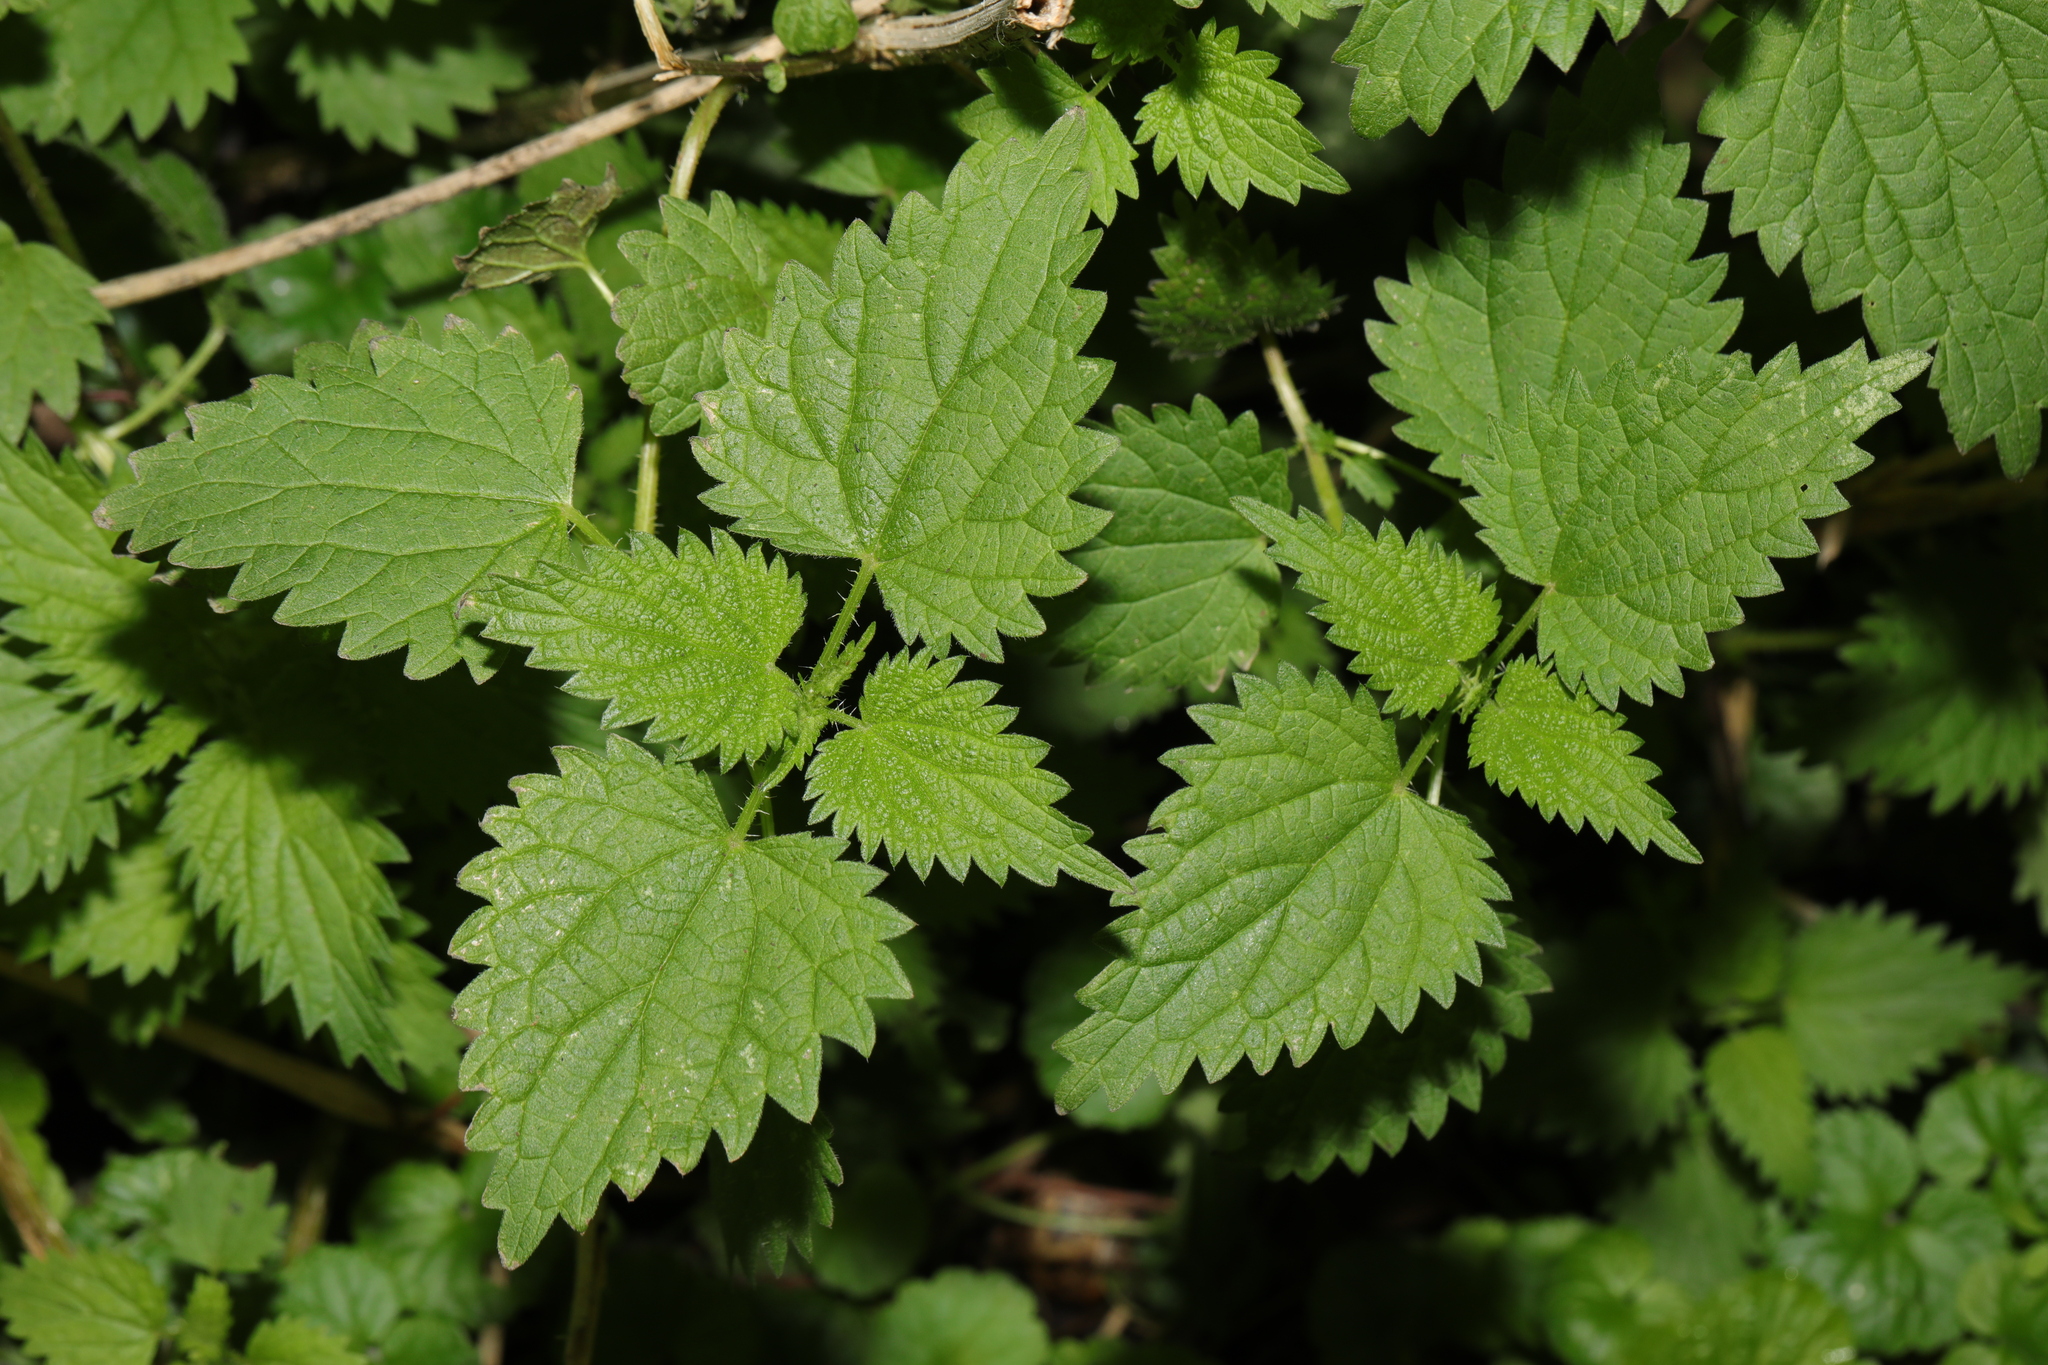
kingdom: Plantae
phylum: Tracheophyta
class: Magnoliopsida
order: Rosales
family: Urticaceae
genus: Urtica
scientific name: Urtica dioica
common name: Common nettle
